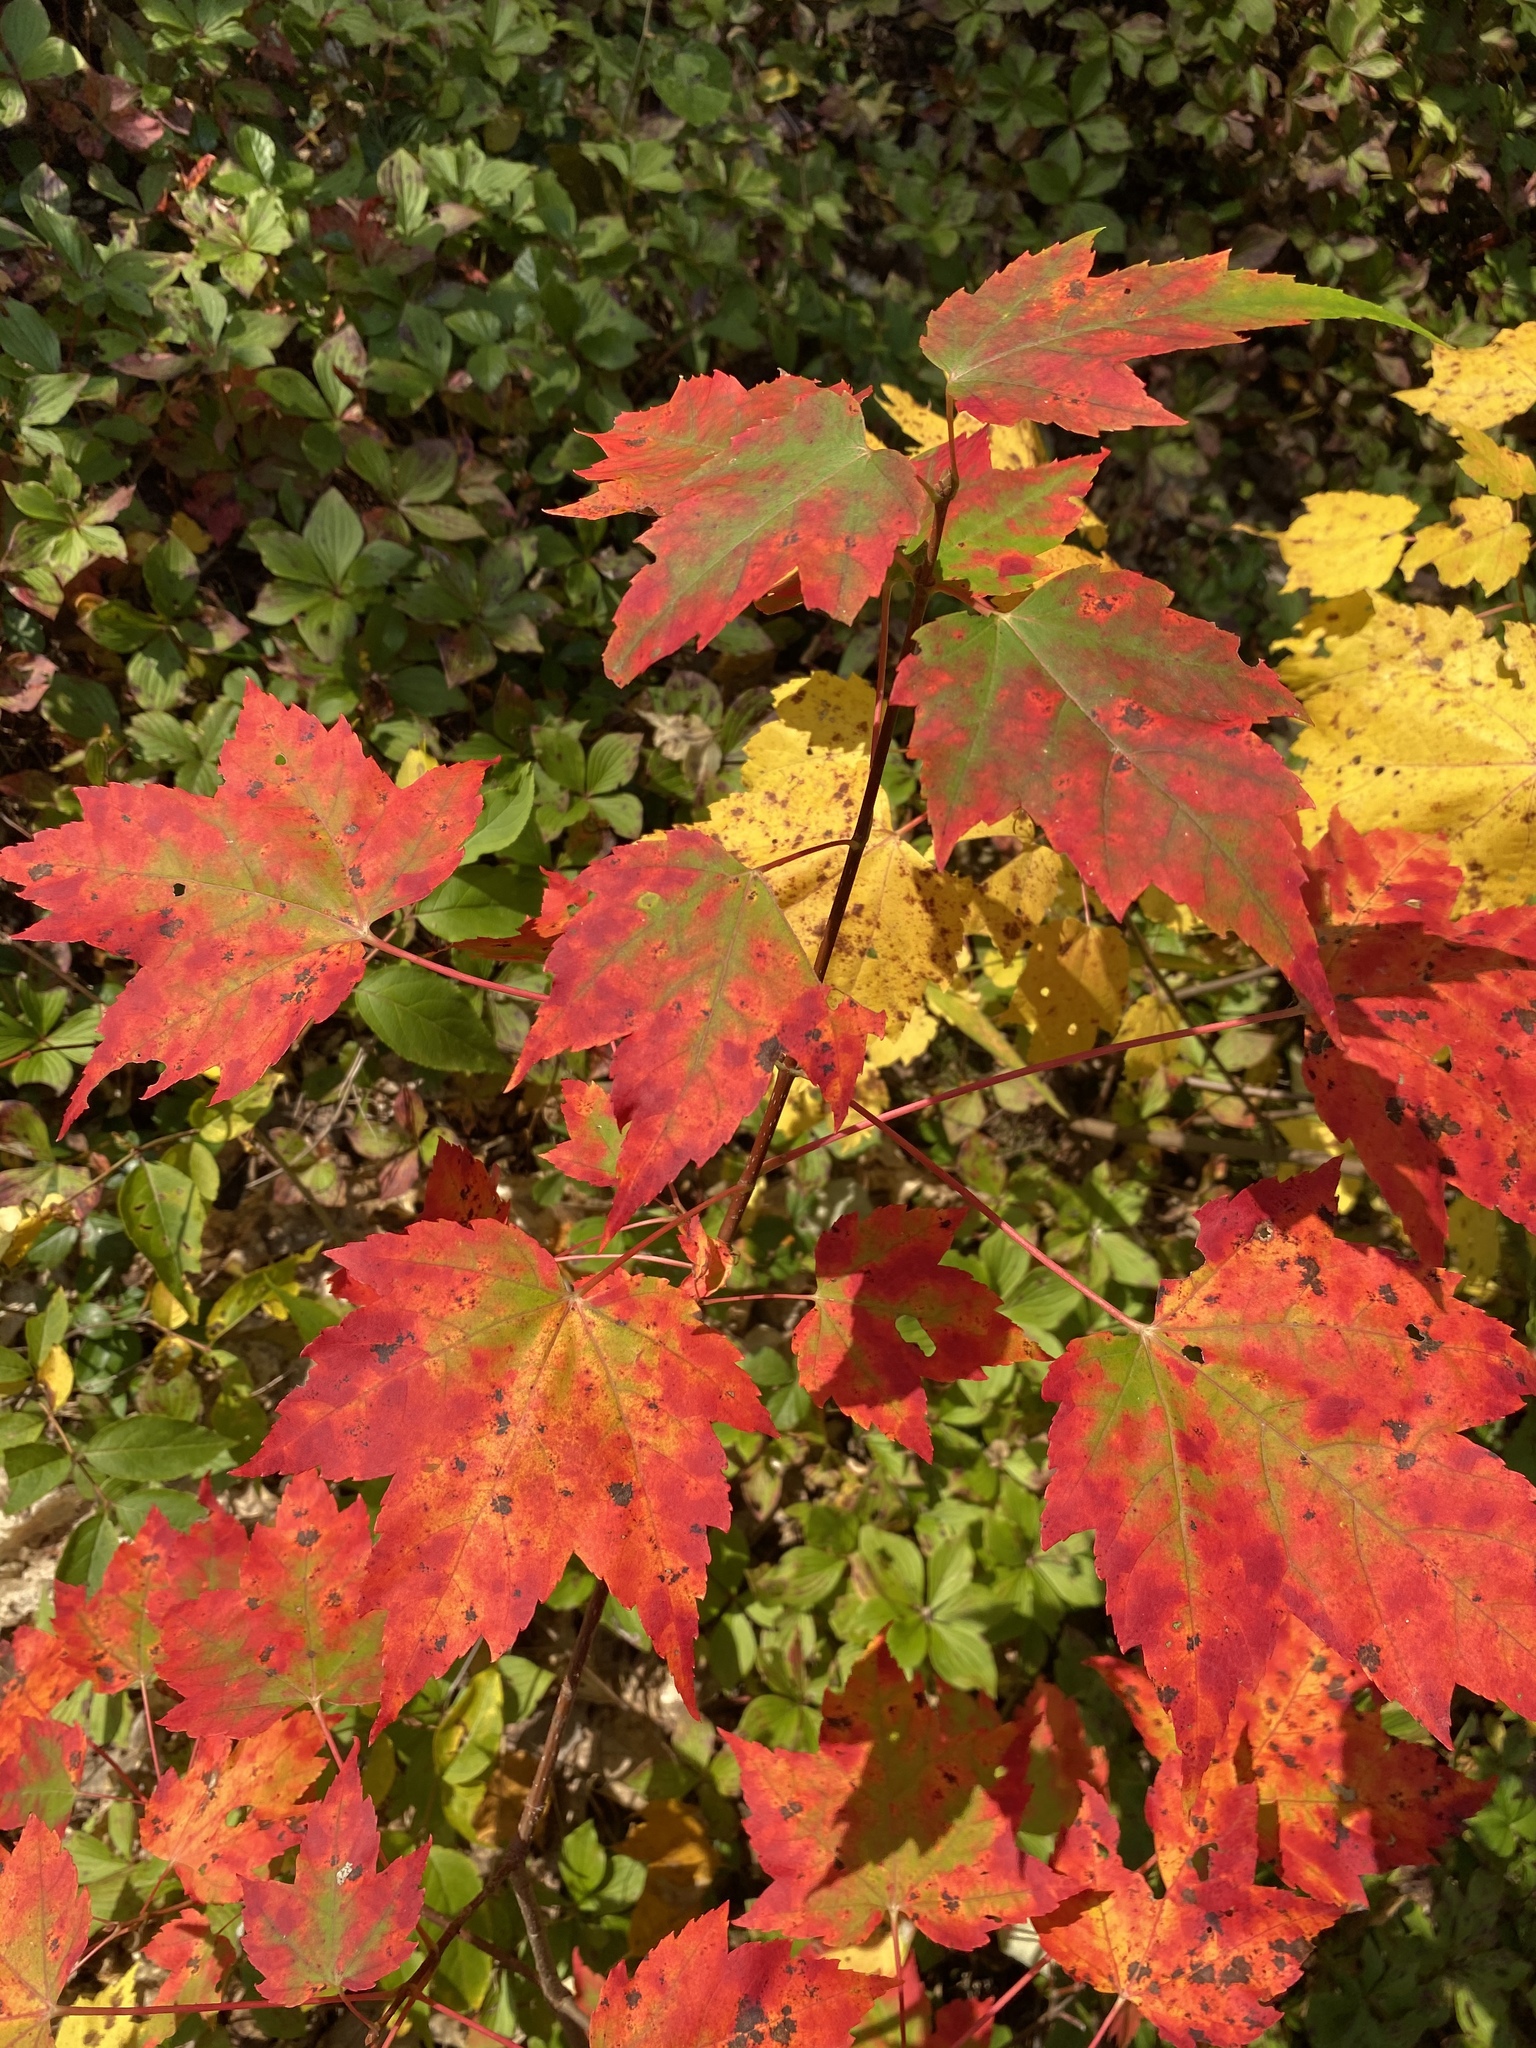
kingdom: Plantae
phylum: Tracheophyta
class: Magnoliopsida
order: Sapindales
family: Sapindaceae
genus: Acer
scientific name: Acer rubrum
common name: Red maple
